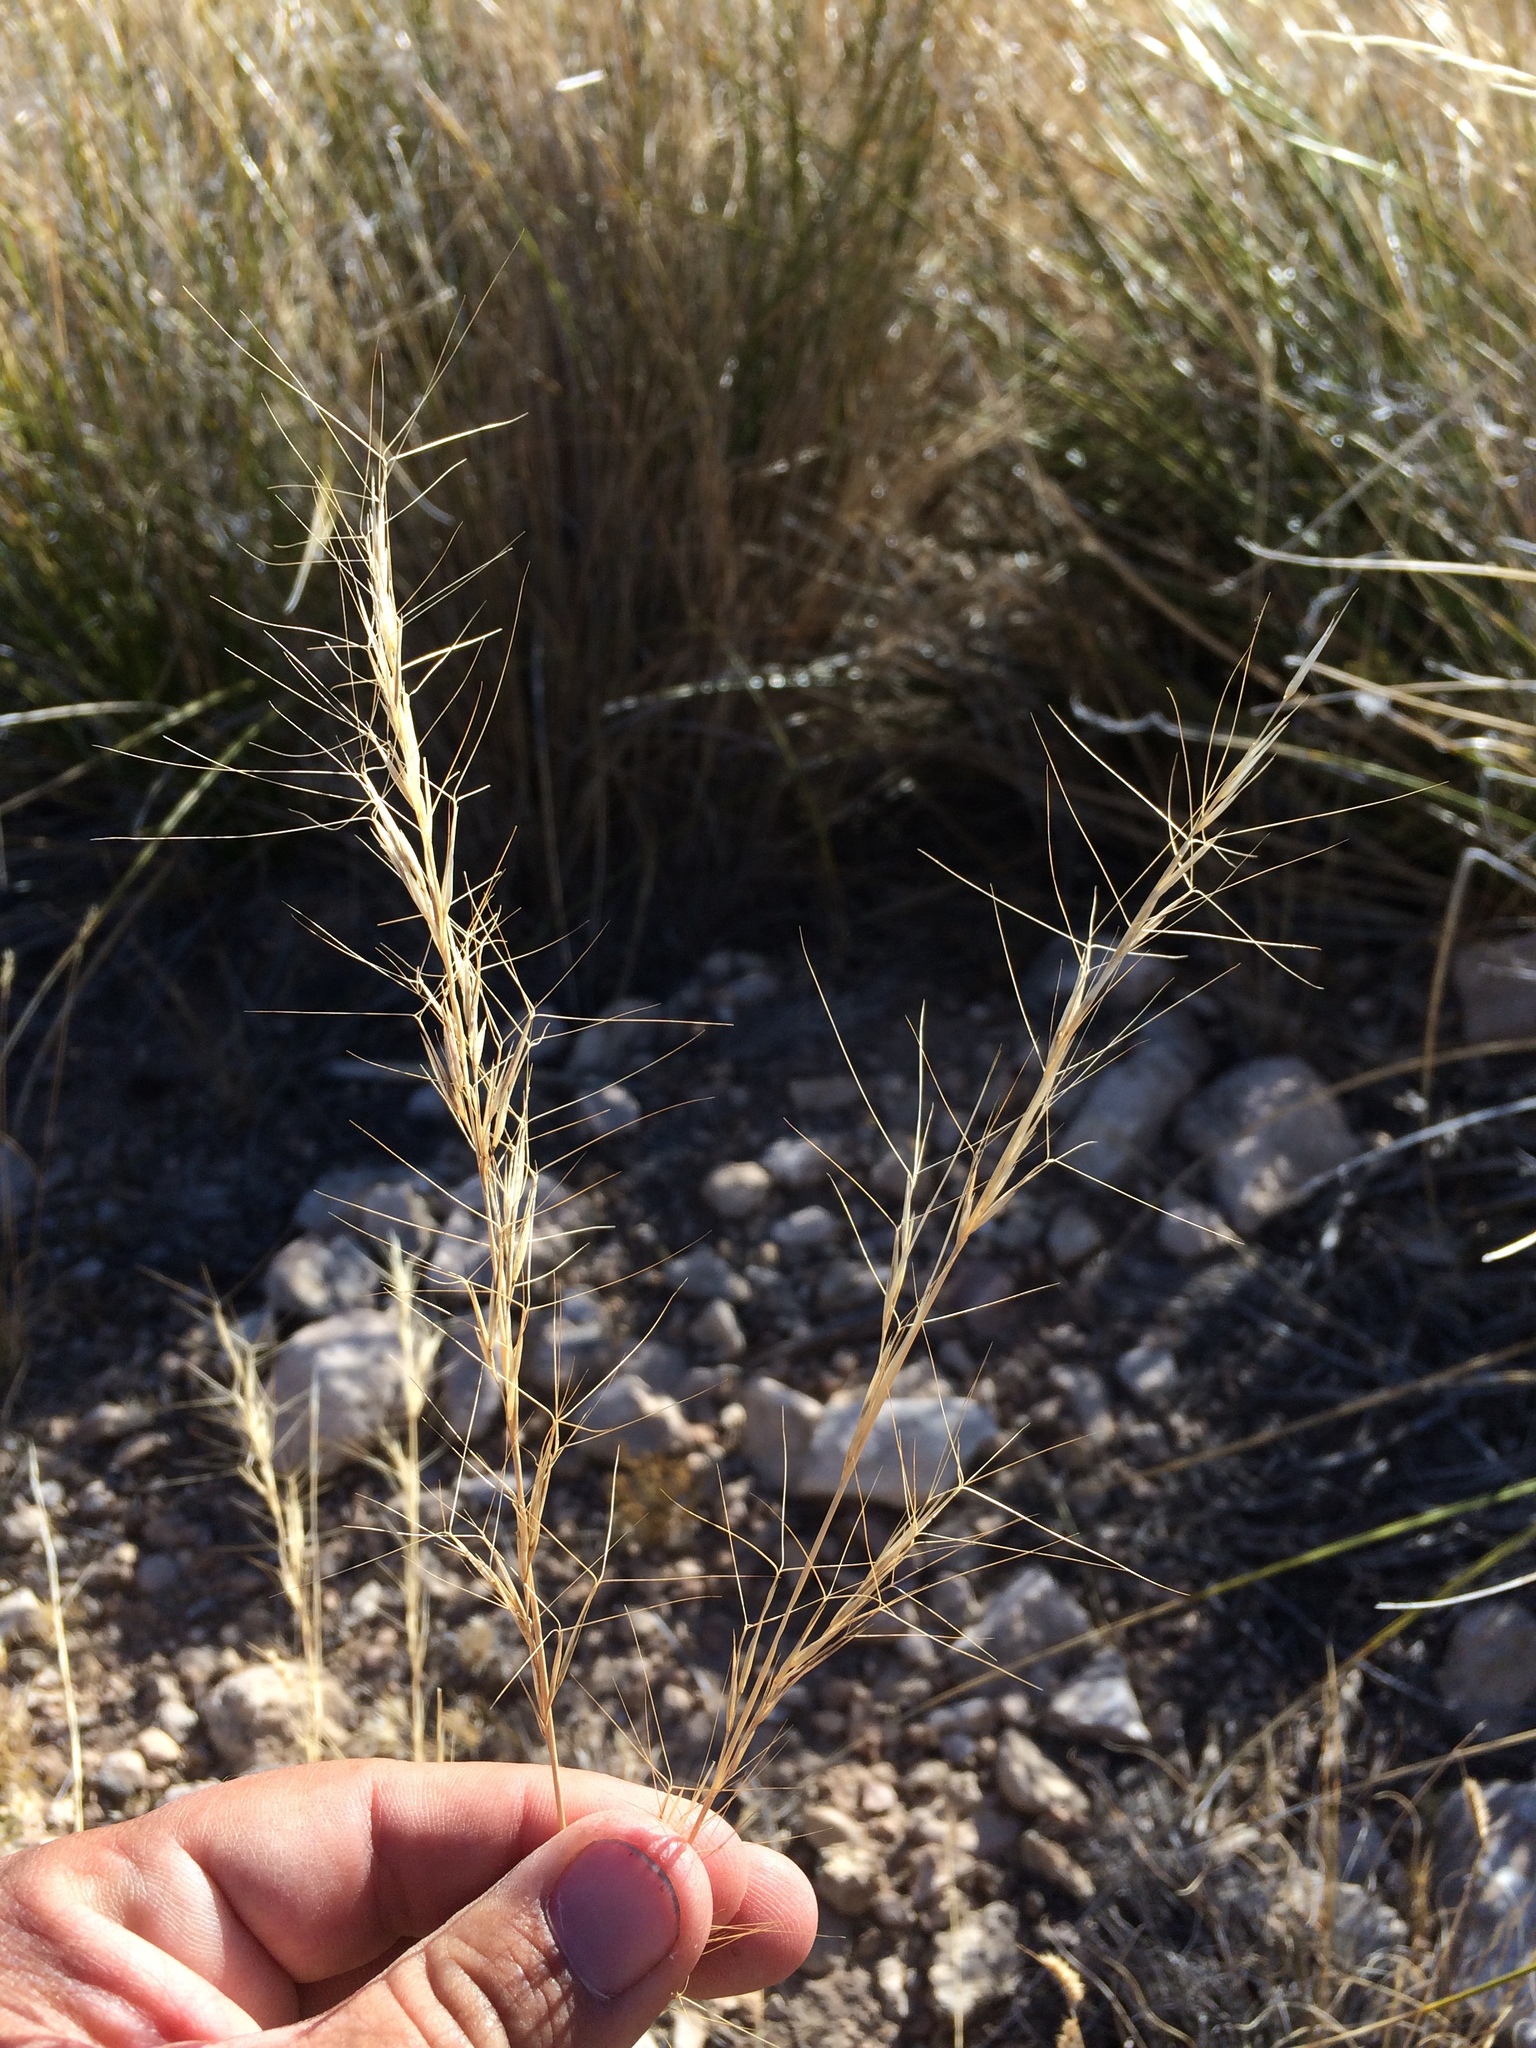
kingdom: Plantae
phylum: Tracheophyta
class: Liliopsida
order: Poales
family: Poaceae
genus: Aristida
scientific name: Aristida purpurea
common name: Purple threeawn
